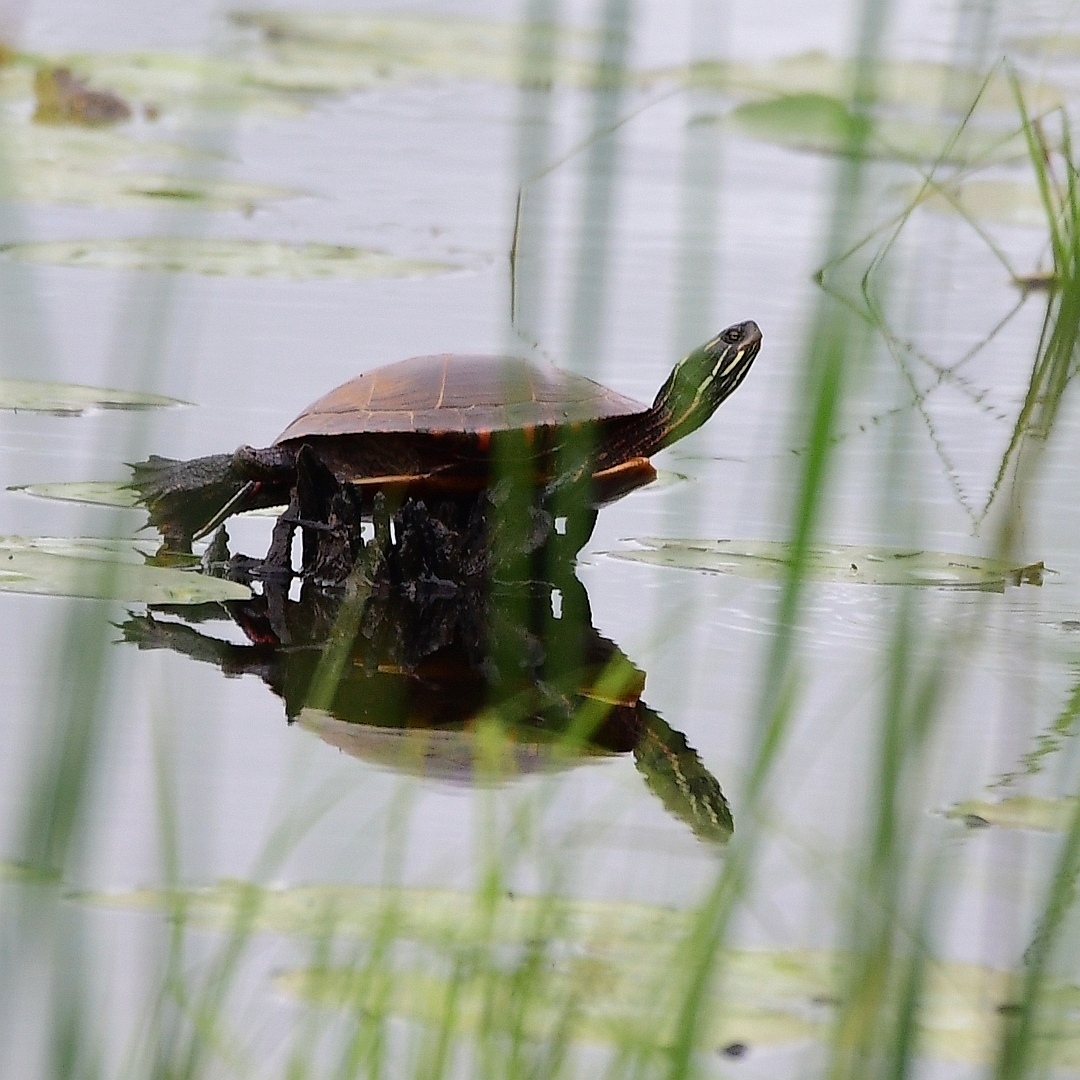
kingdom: Animalia
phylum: Chordata
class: Testudines
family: Emydidae
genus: Chrysemys
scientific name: Chrysemys picta
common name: Painted turtle
